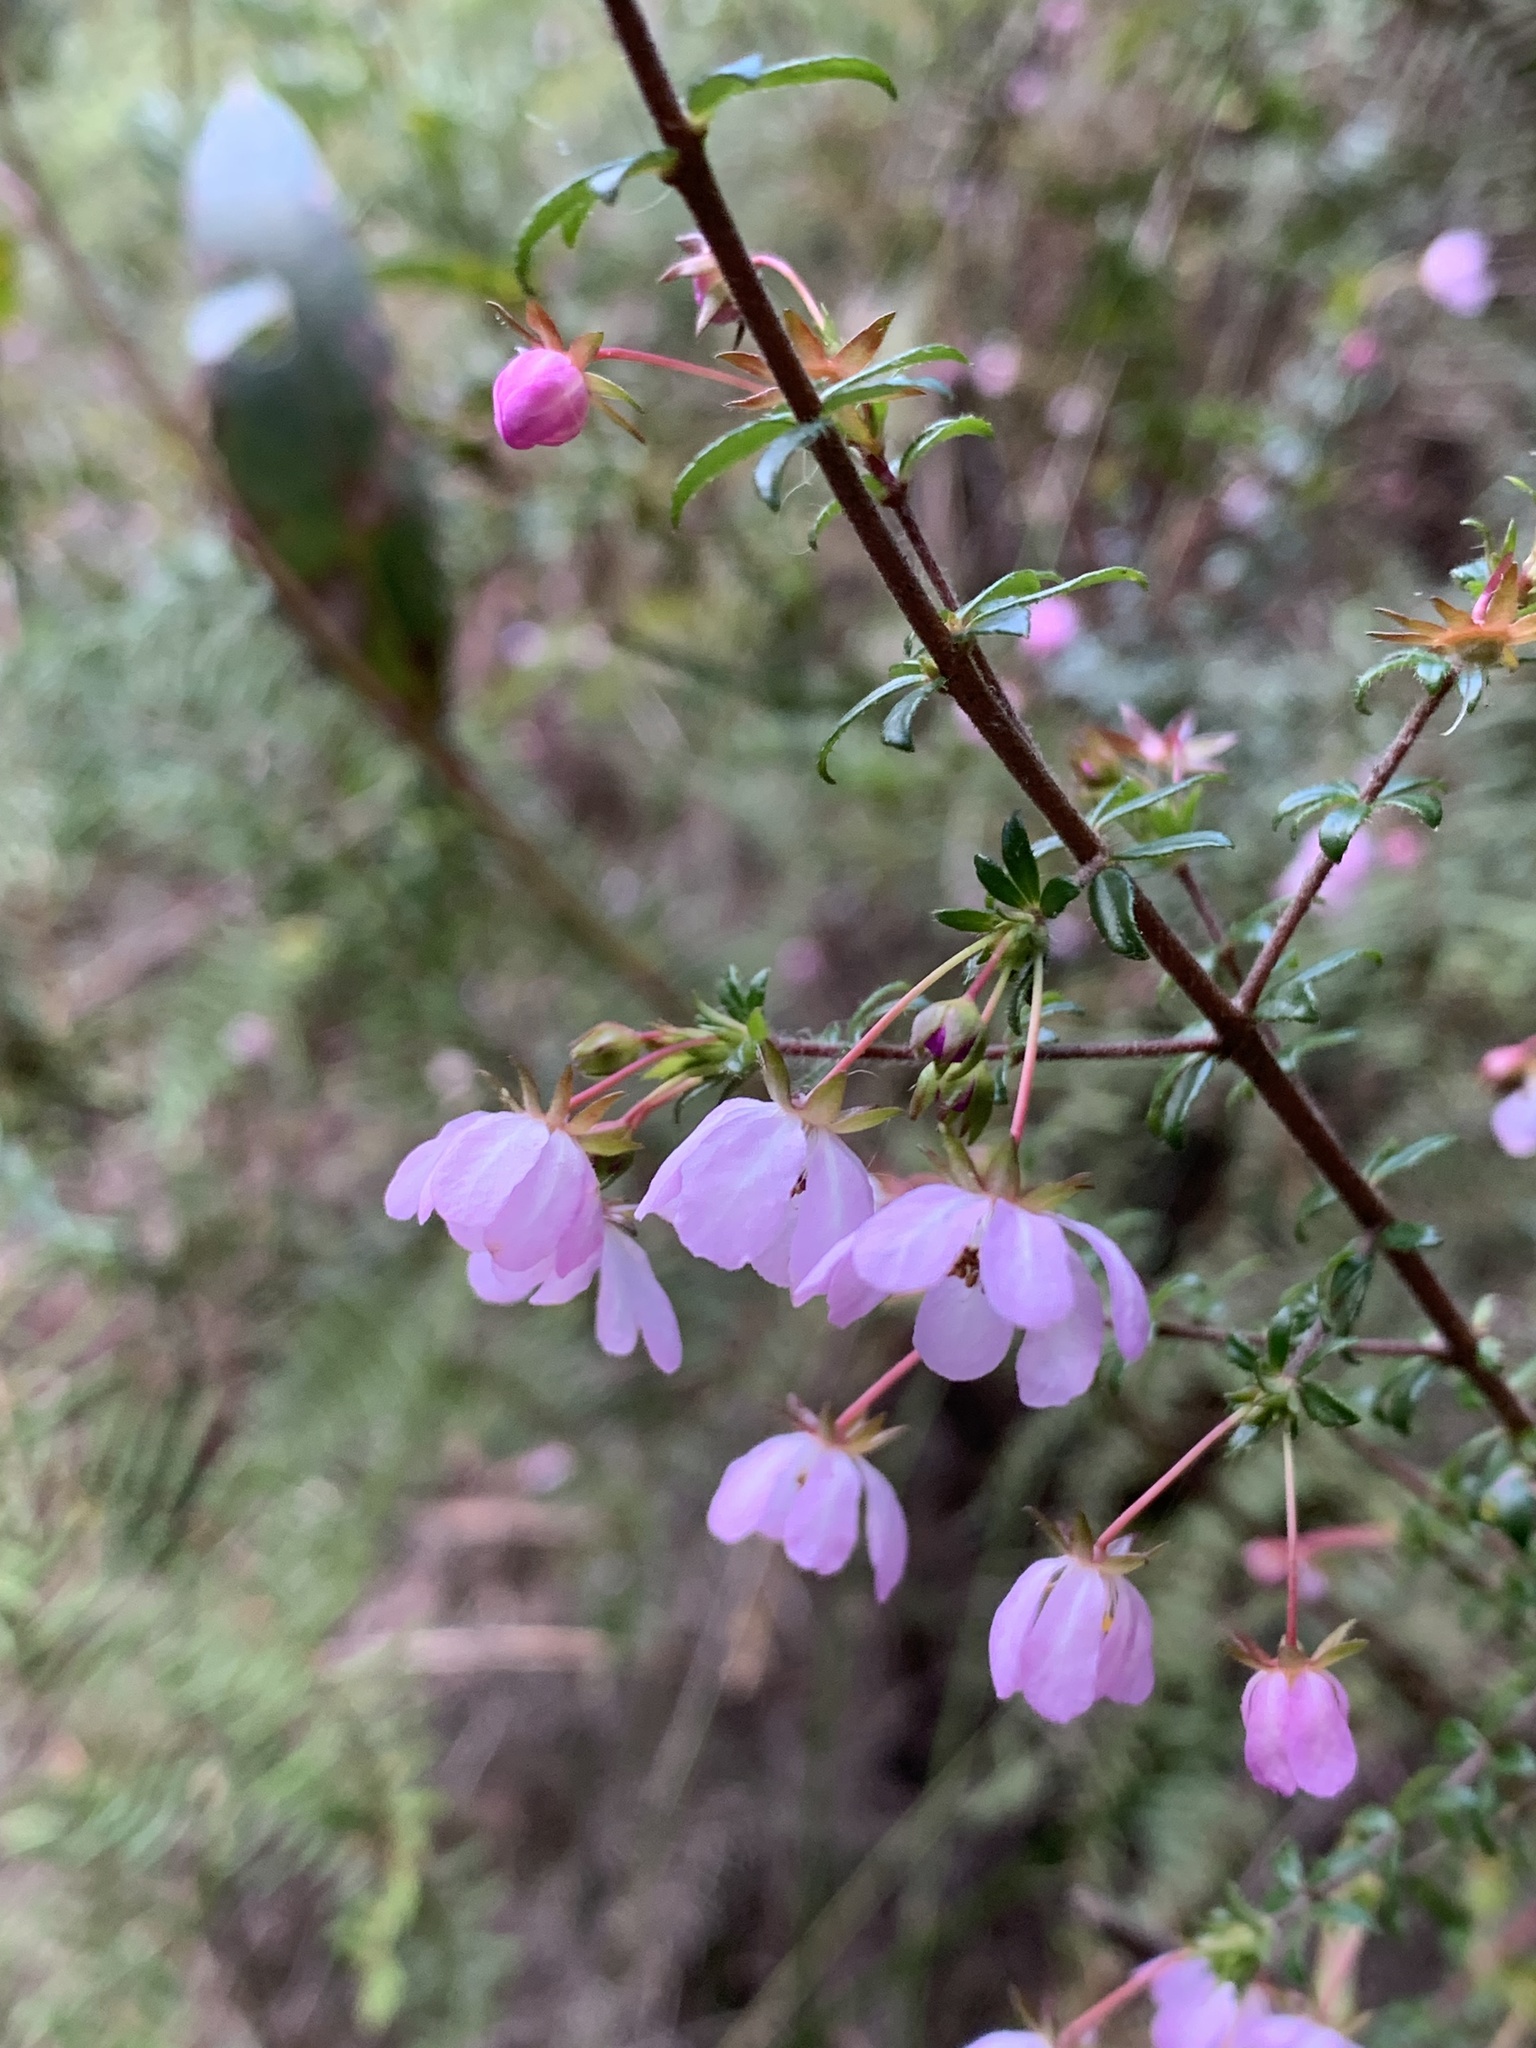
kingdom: Plantae
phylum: Tracheophyta
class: Magnoliopsida
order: Oxalidales
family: Cunoniaceae
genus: Bauera
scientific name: Bauera rubioides
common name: River-rose
